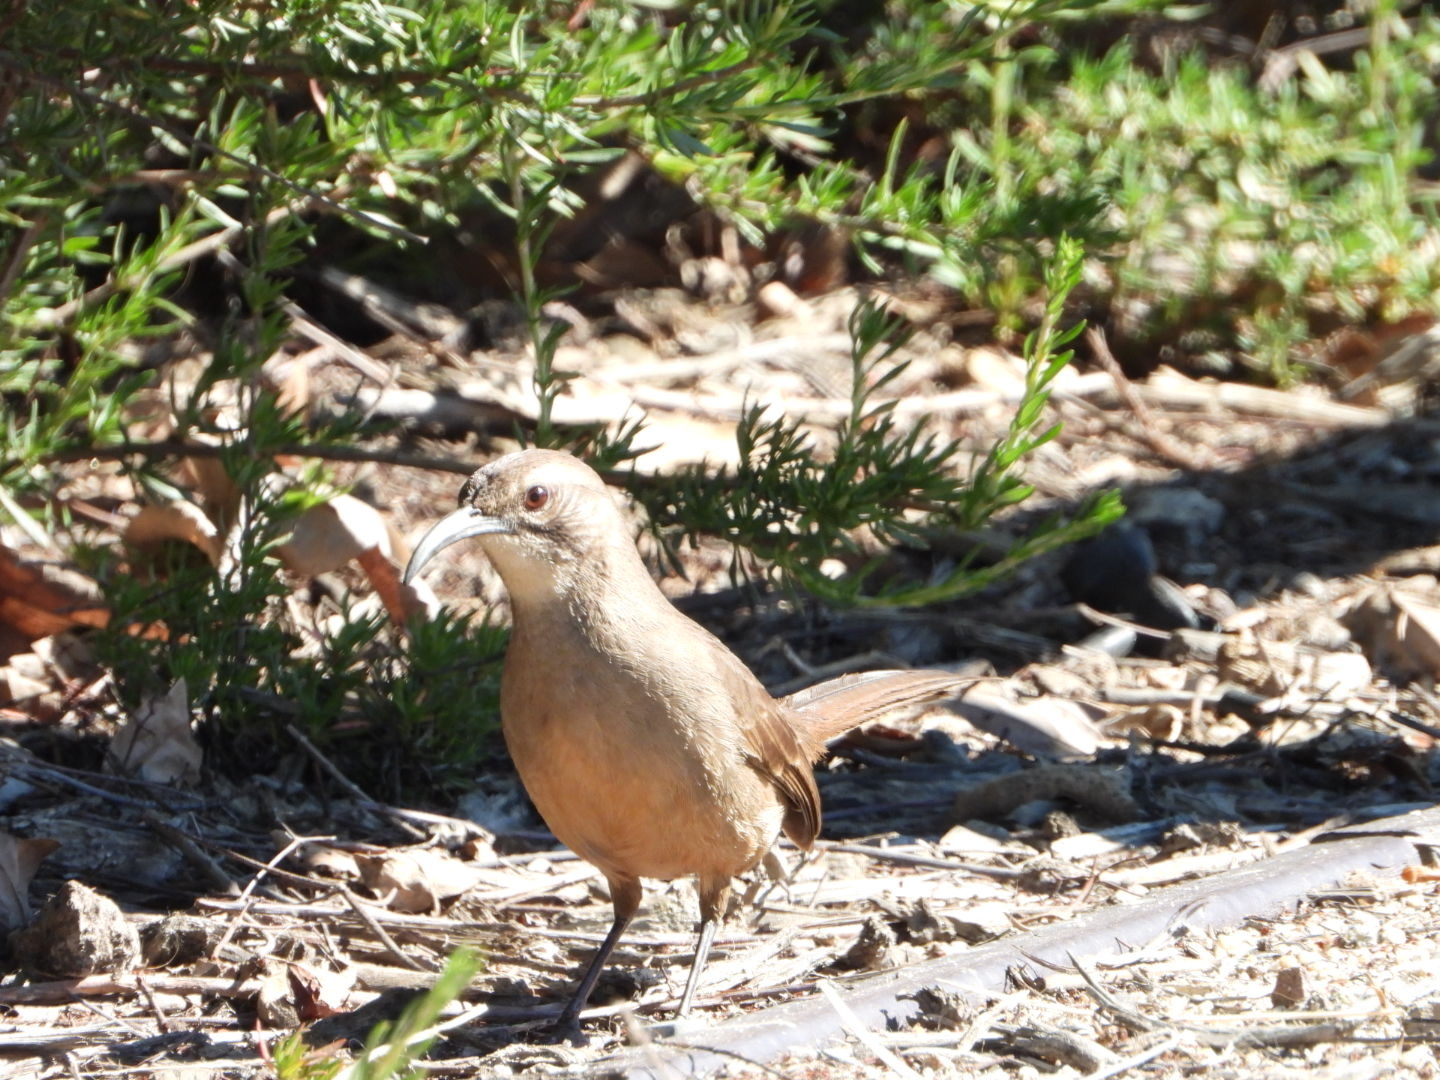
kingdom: Animalia
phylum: Chordata
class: Aves
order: Passeriformes
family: Mimidae
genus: Toxostoma
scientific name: Toxostoma redivivum
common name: California thrasher
